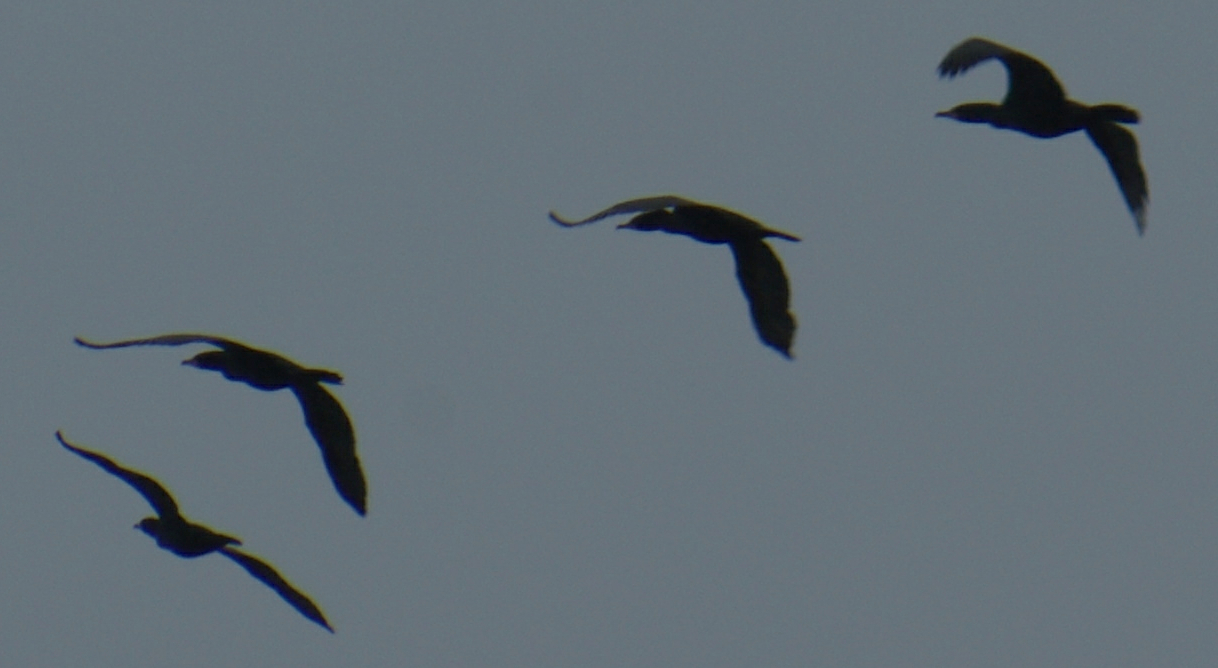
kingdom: Animalia
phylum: Chordata
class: Aves
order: Suliformes
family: Phalacrocoracidae
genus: Phalacrocorax
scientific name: Phalacrocorax auritus
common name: Double-crested cormorant
